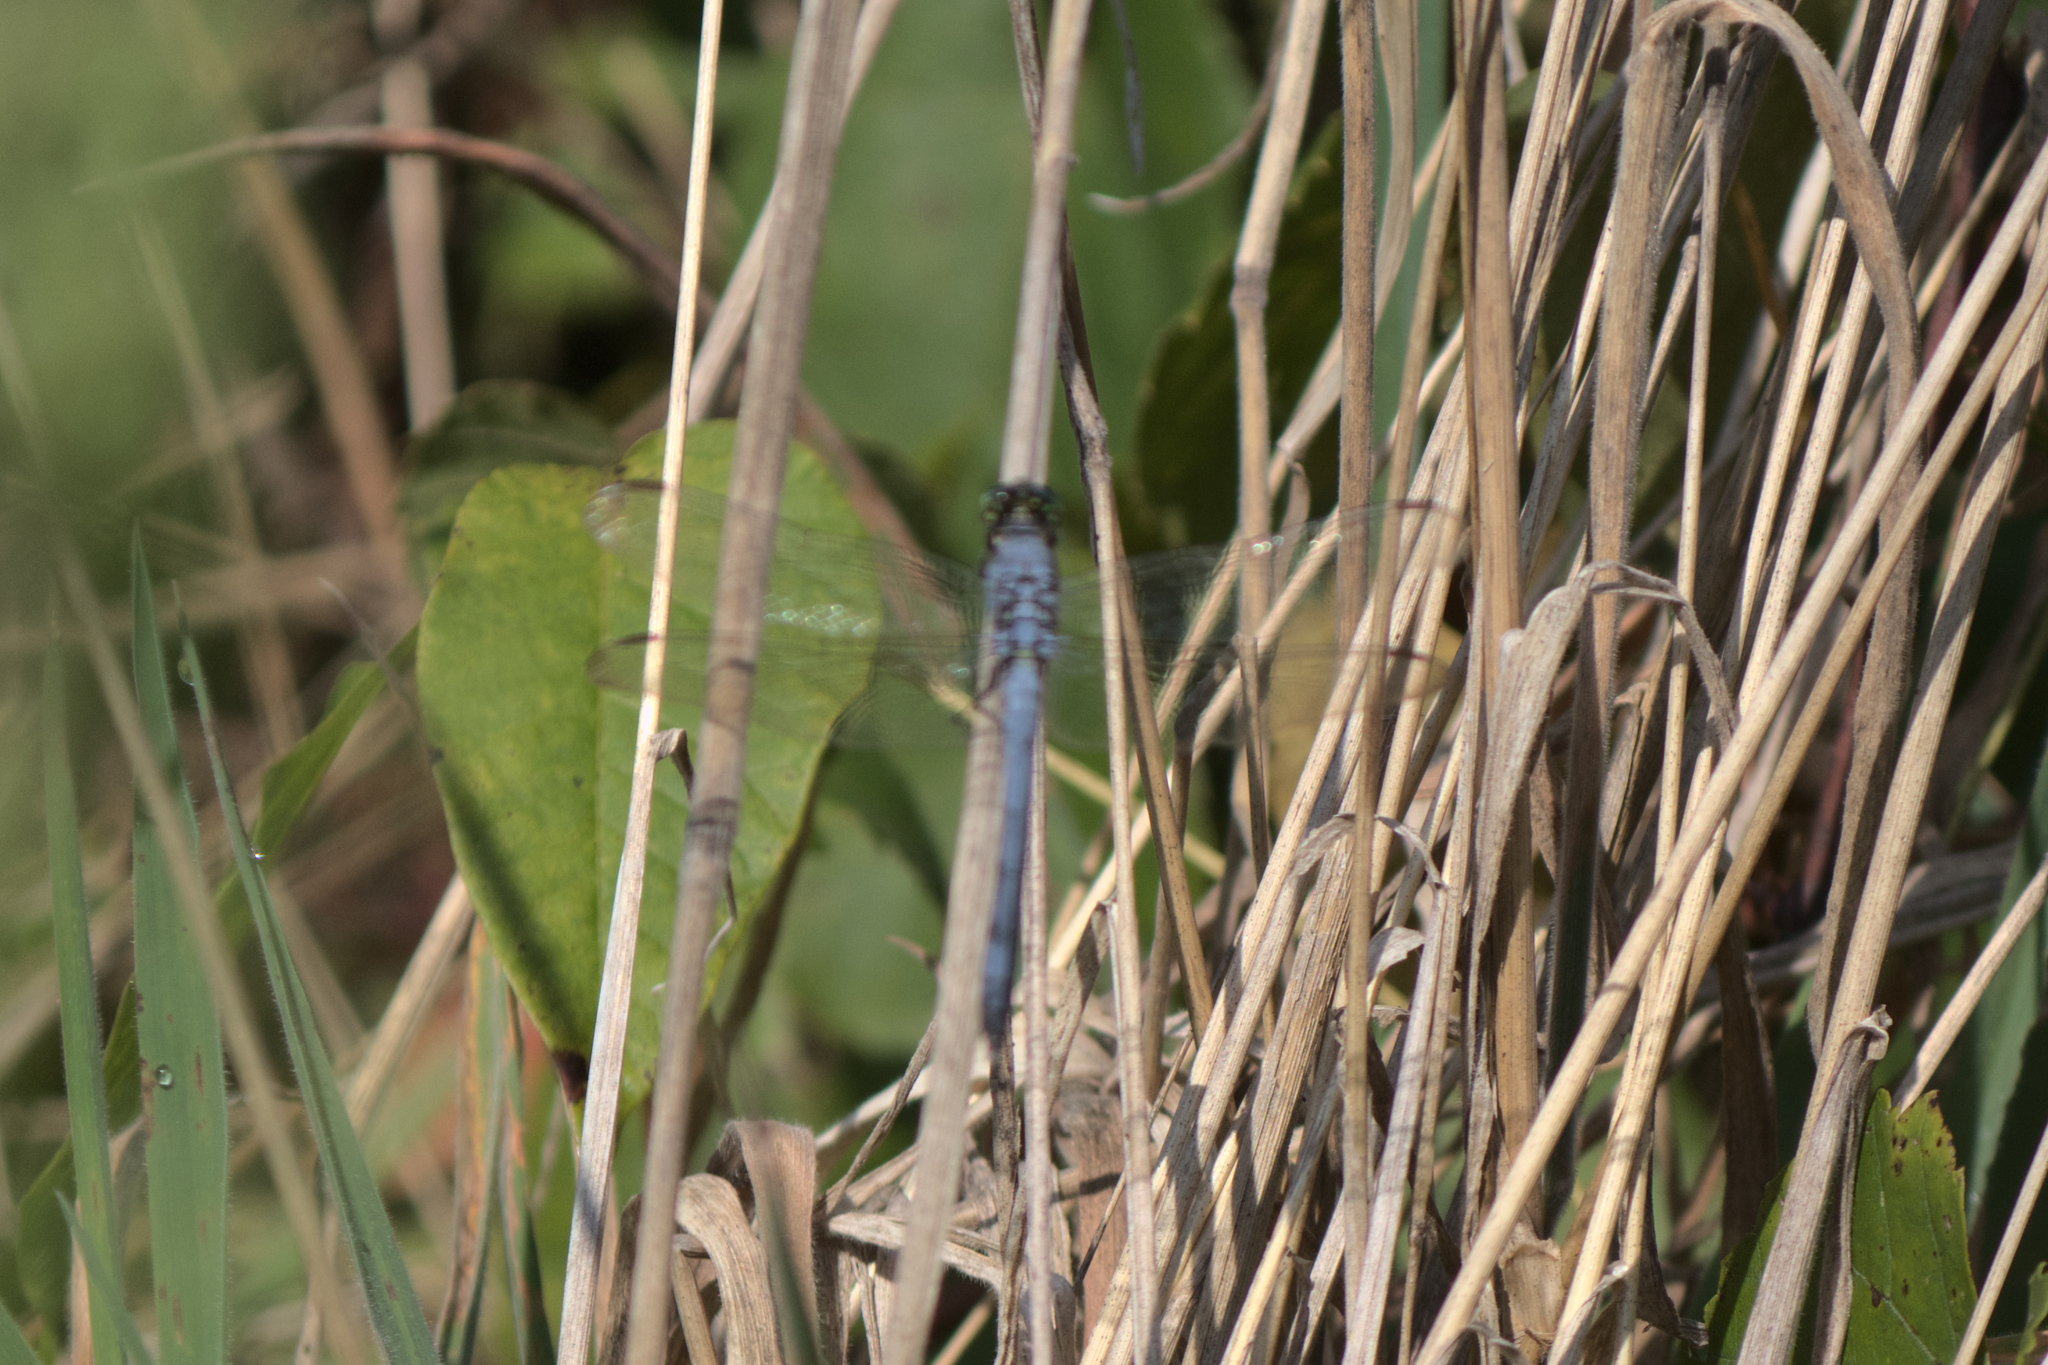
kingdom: Animalia
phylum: Arthropoda
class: Insecta
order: Odonata
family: Libellulidae
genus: Erythemis
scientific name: Erythemis simplicicollis
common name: Eastern pondhawk
